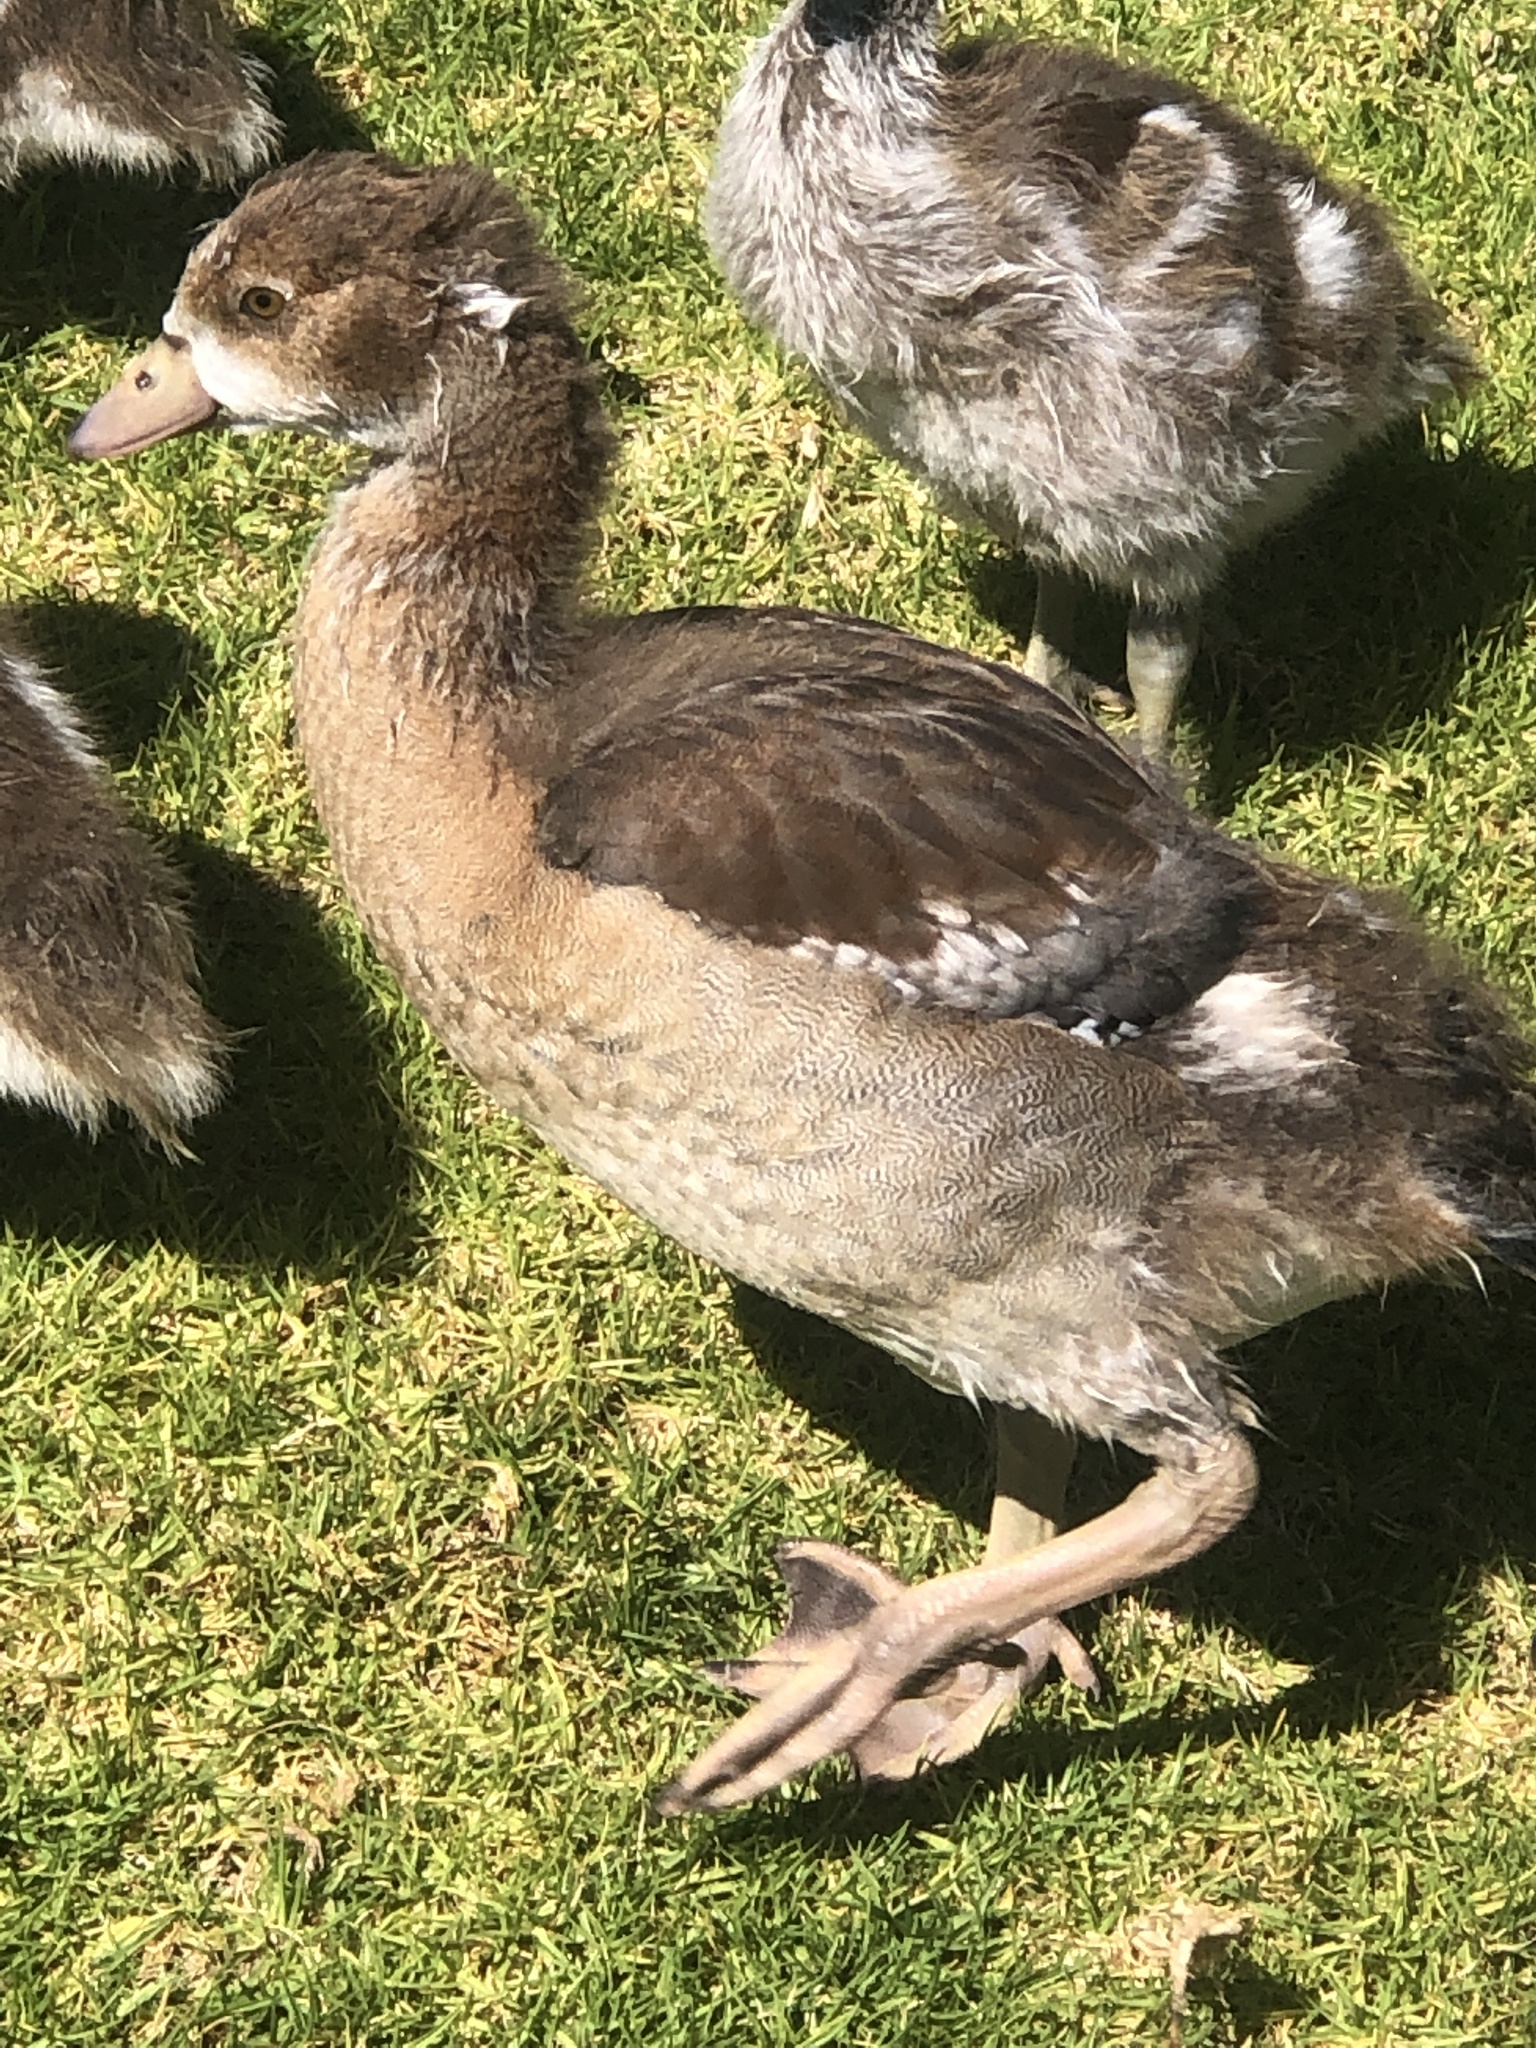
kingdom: Animalia
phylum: Chordata
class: Aves
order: Anseriformes
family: Anatidae
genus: Alopochen
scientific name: Alopochen aegyptiaca
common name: Egyptian goose
